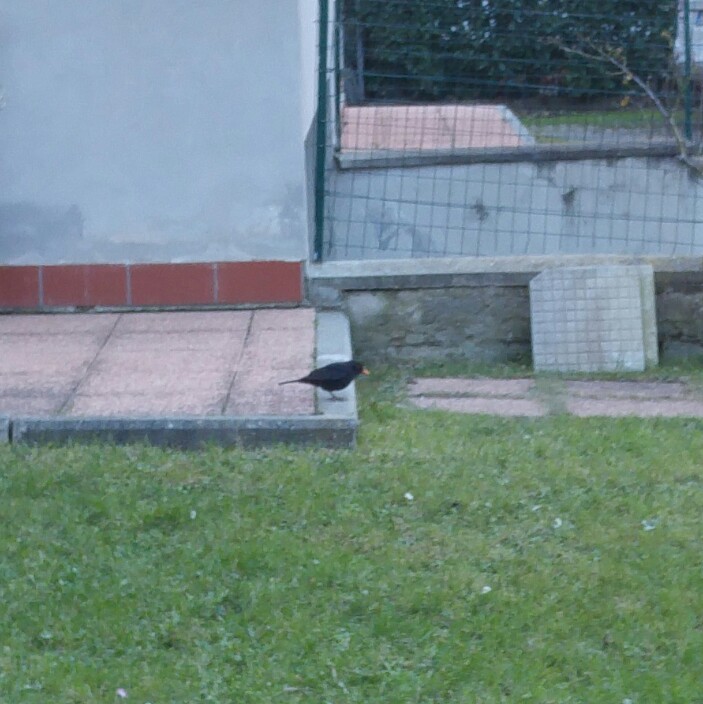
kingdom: Animalia
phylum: Chordata
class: Aves
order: Passeriformes
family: Turdidae
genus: Turdus
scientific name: Turdus merula
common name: Common blackbird
